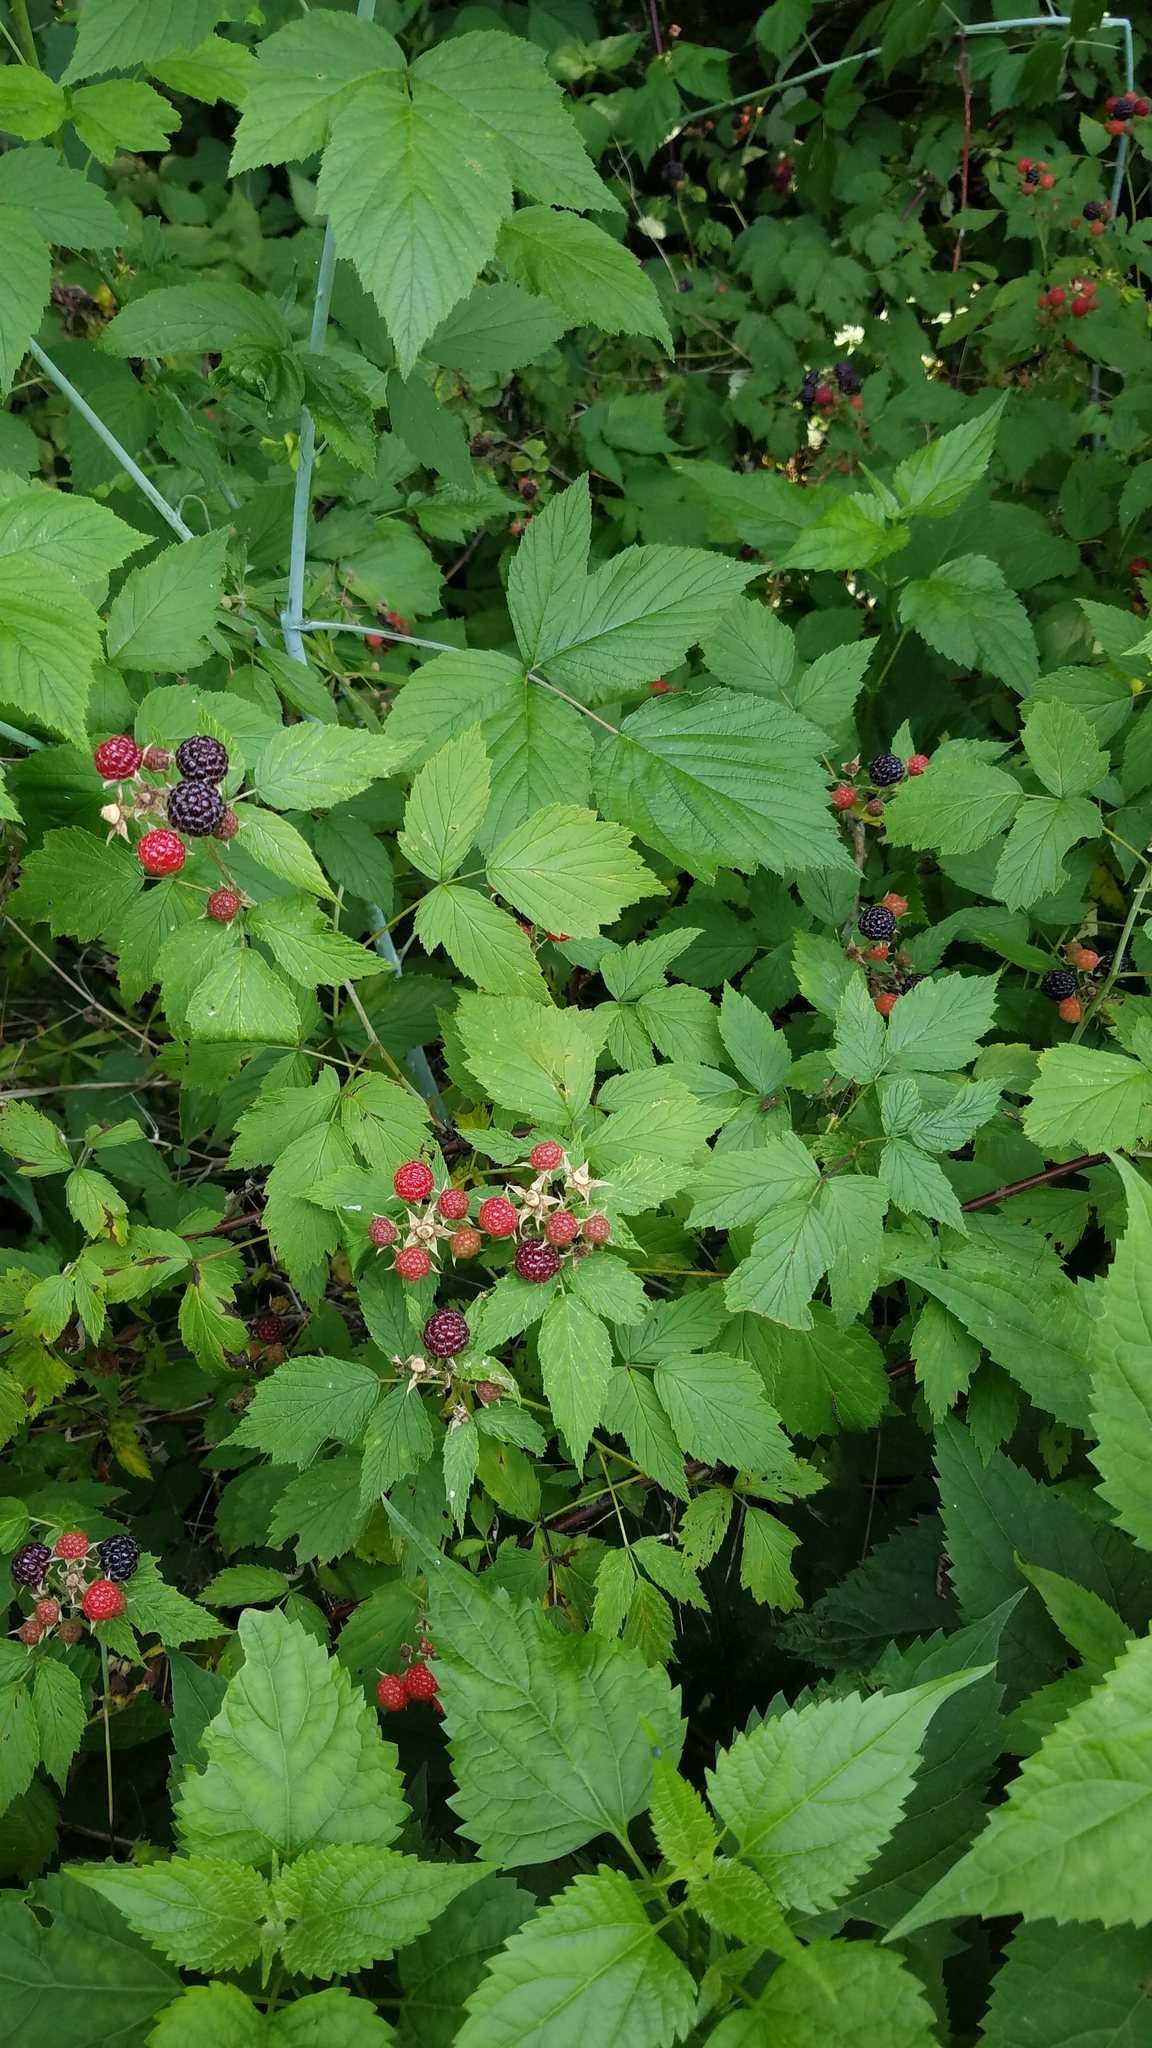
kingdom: Plantae
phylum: Tracheophyta
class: Magnoliopsida
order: Rosales
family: Rosaceae
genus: Rubus
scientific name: Rubus occidentalis
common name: Black raspberry
